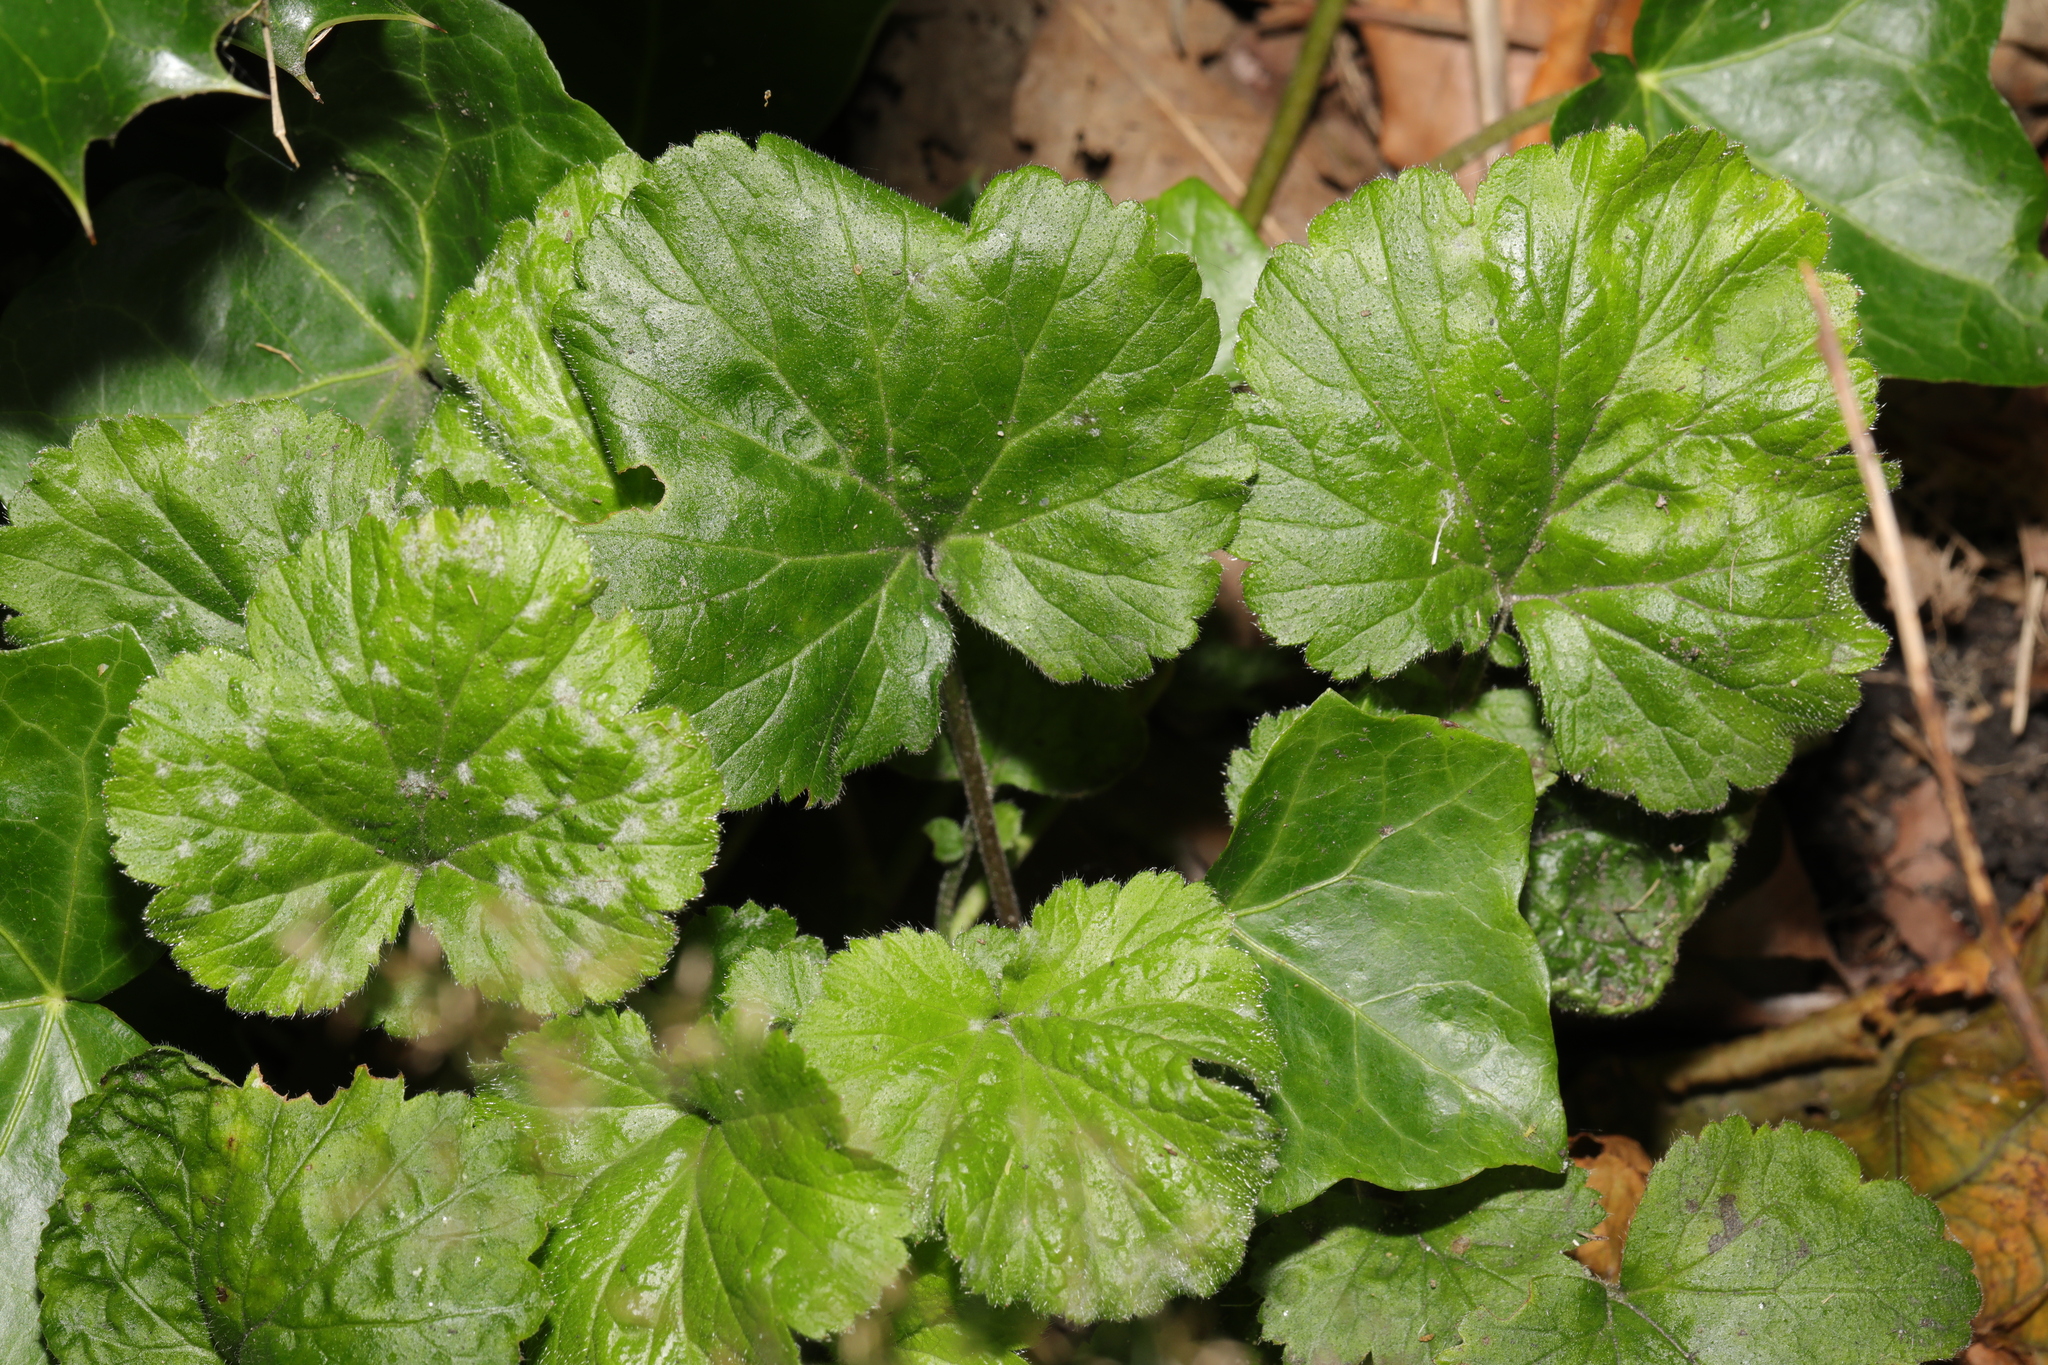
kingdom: Plantae
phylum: Tracheophyta
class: Magnoliopsida
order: Rosales
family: Rosaceae
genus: Geum
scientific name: Geum urbanum
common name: Wood avens
